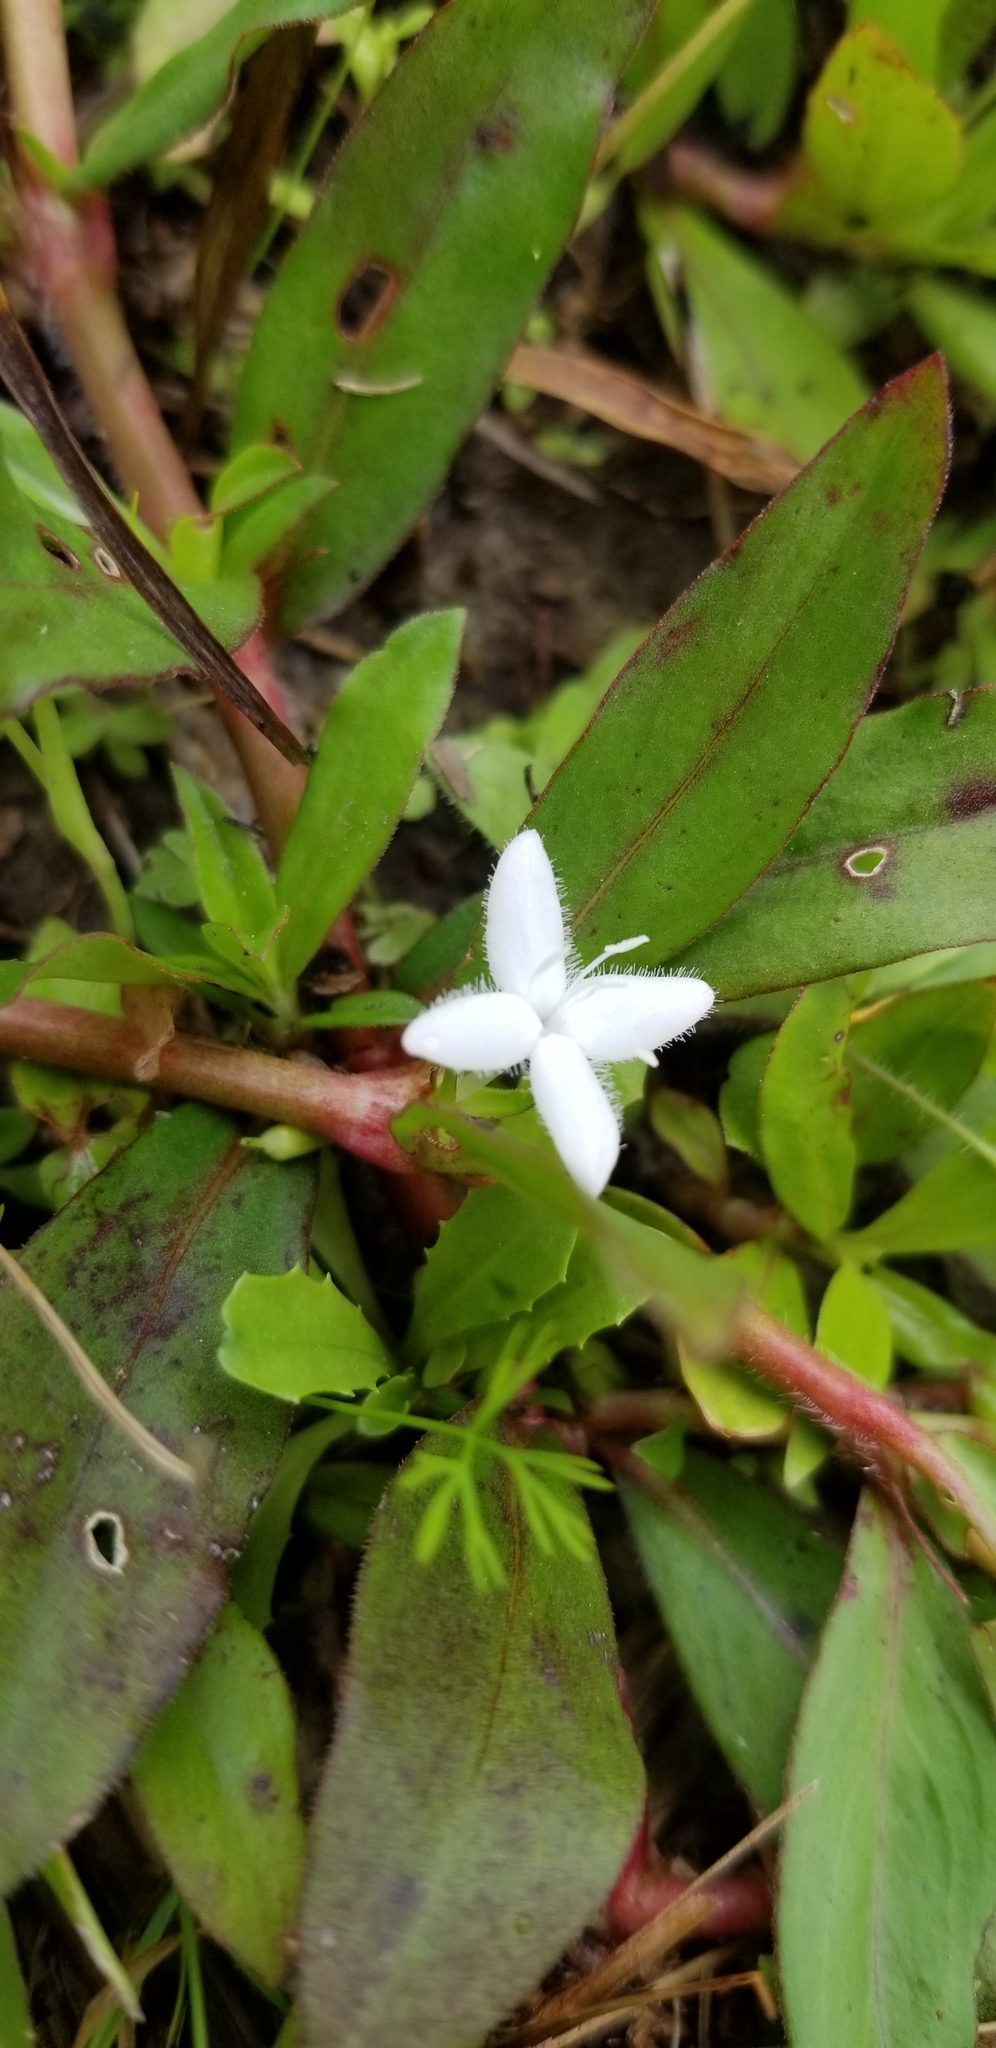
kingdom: Plantae
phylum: Tracheophyta
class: Magnoliopsida
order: Gentianales
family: Rubiaceae
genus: Diodia
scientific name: Diodia virginiana
